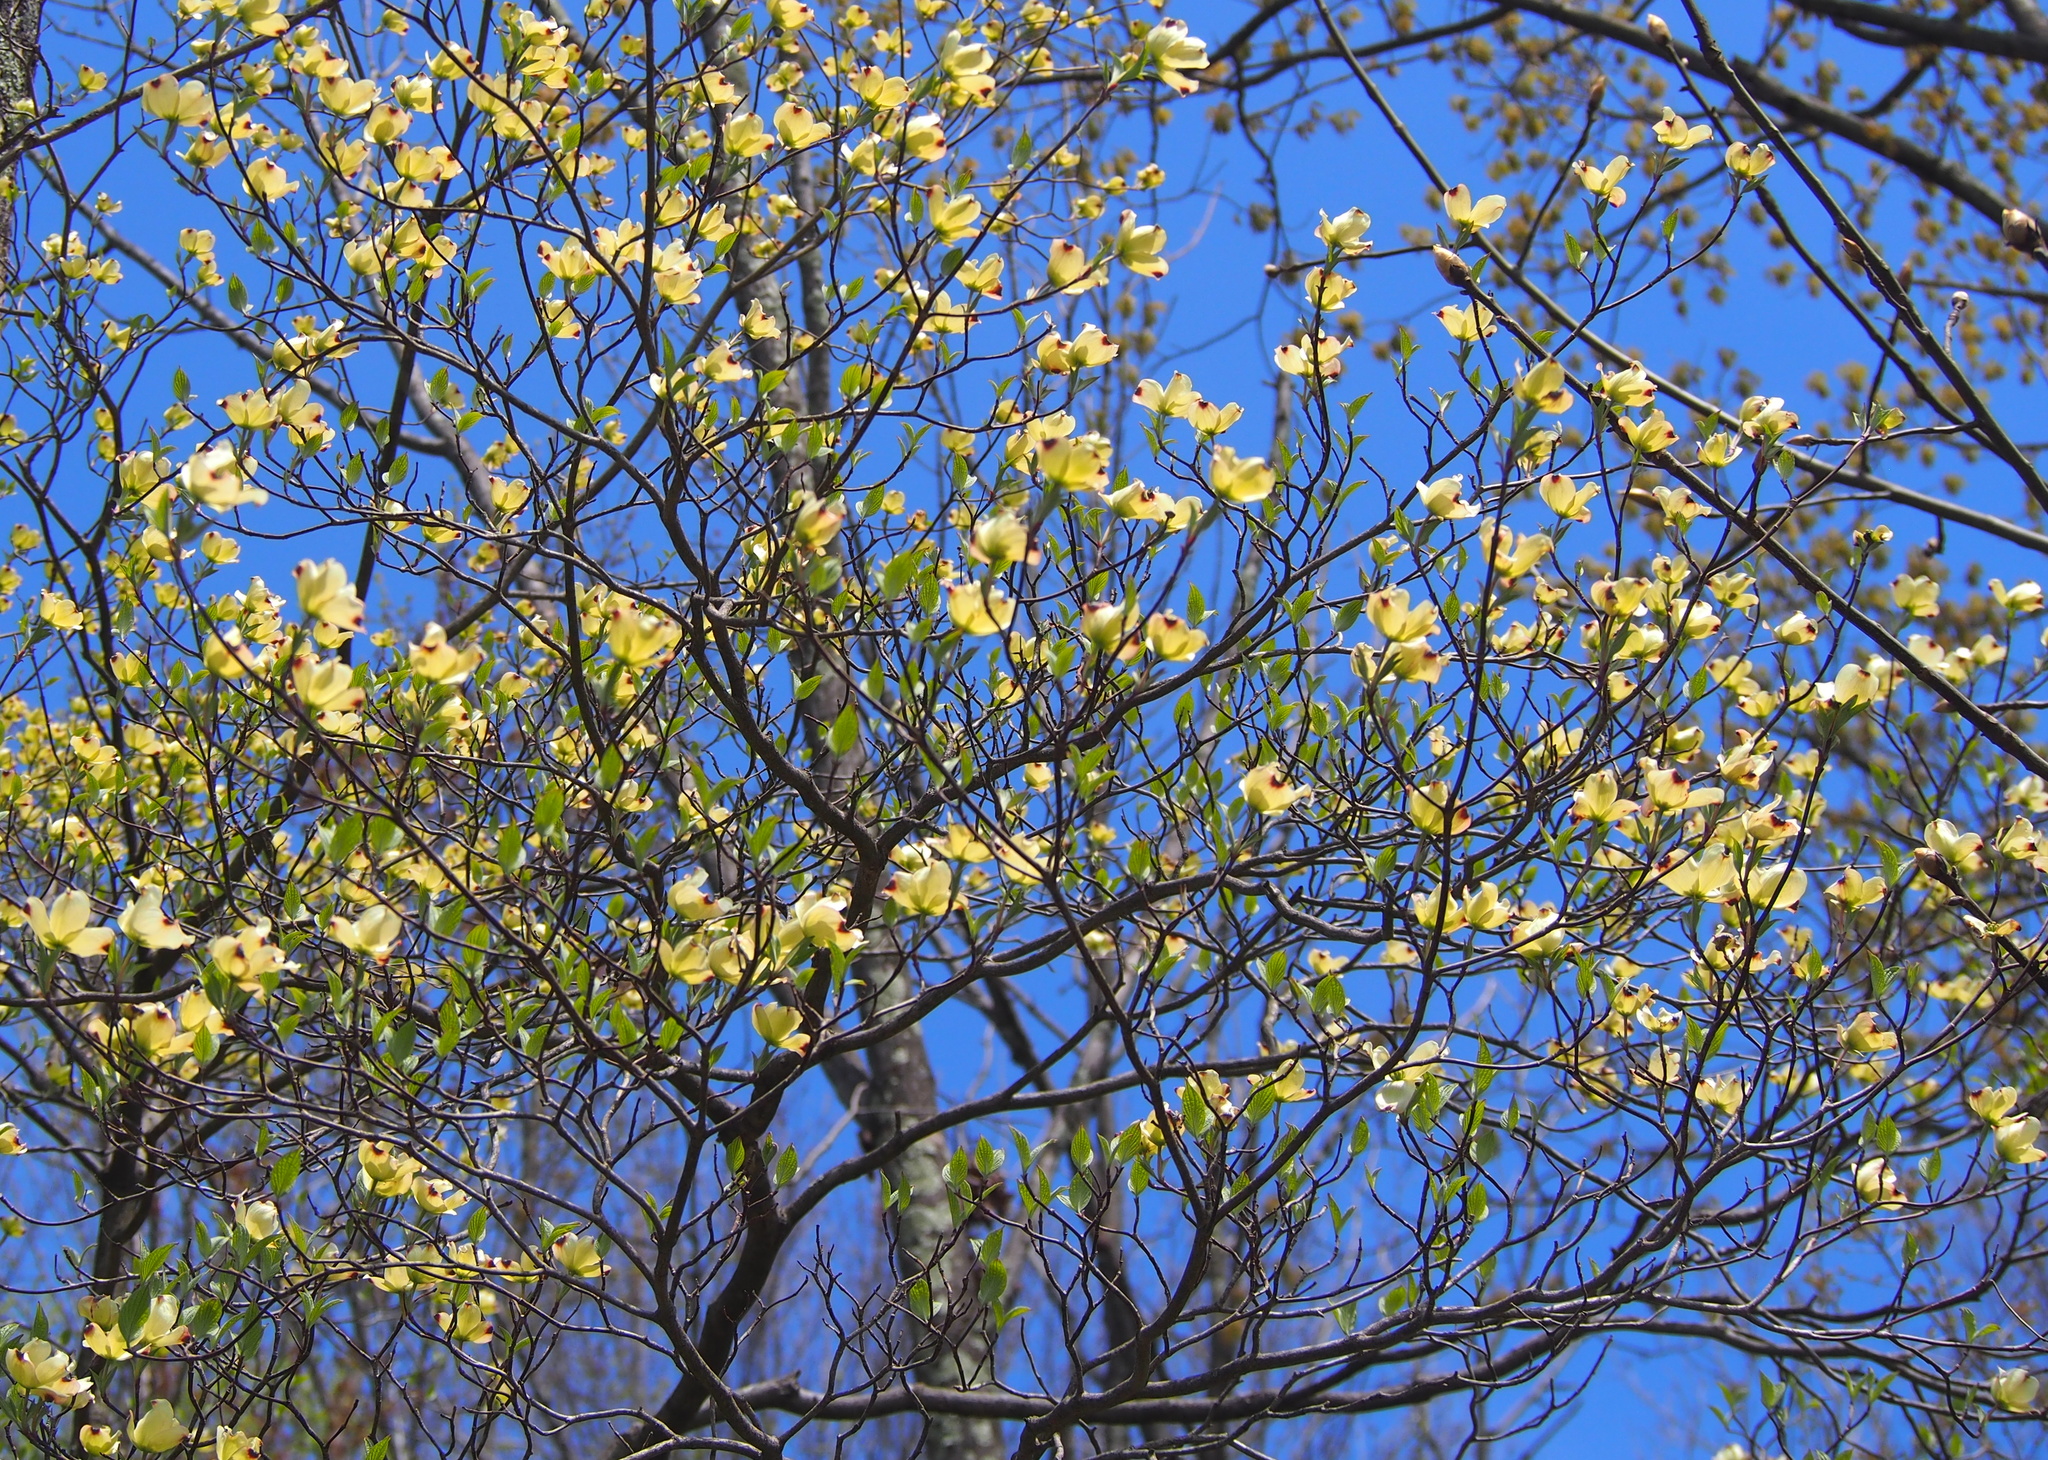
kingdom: Plantae
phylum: Tracheophyta
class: Magnoliopsida
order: Cornales
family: Cornaceae
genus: Cornus
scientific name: Cornus florida
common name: Flowering dogwood
